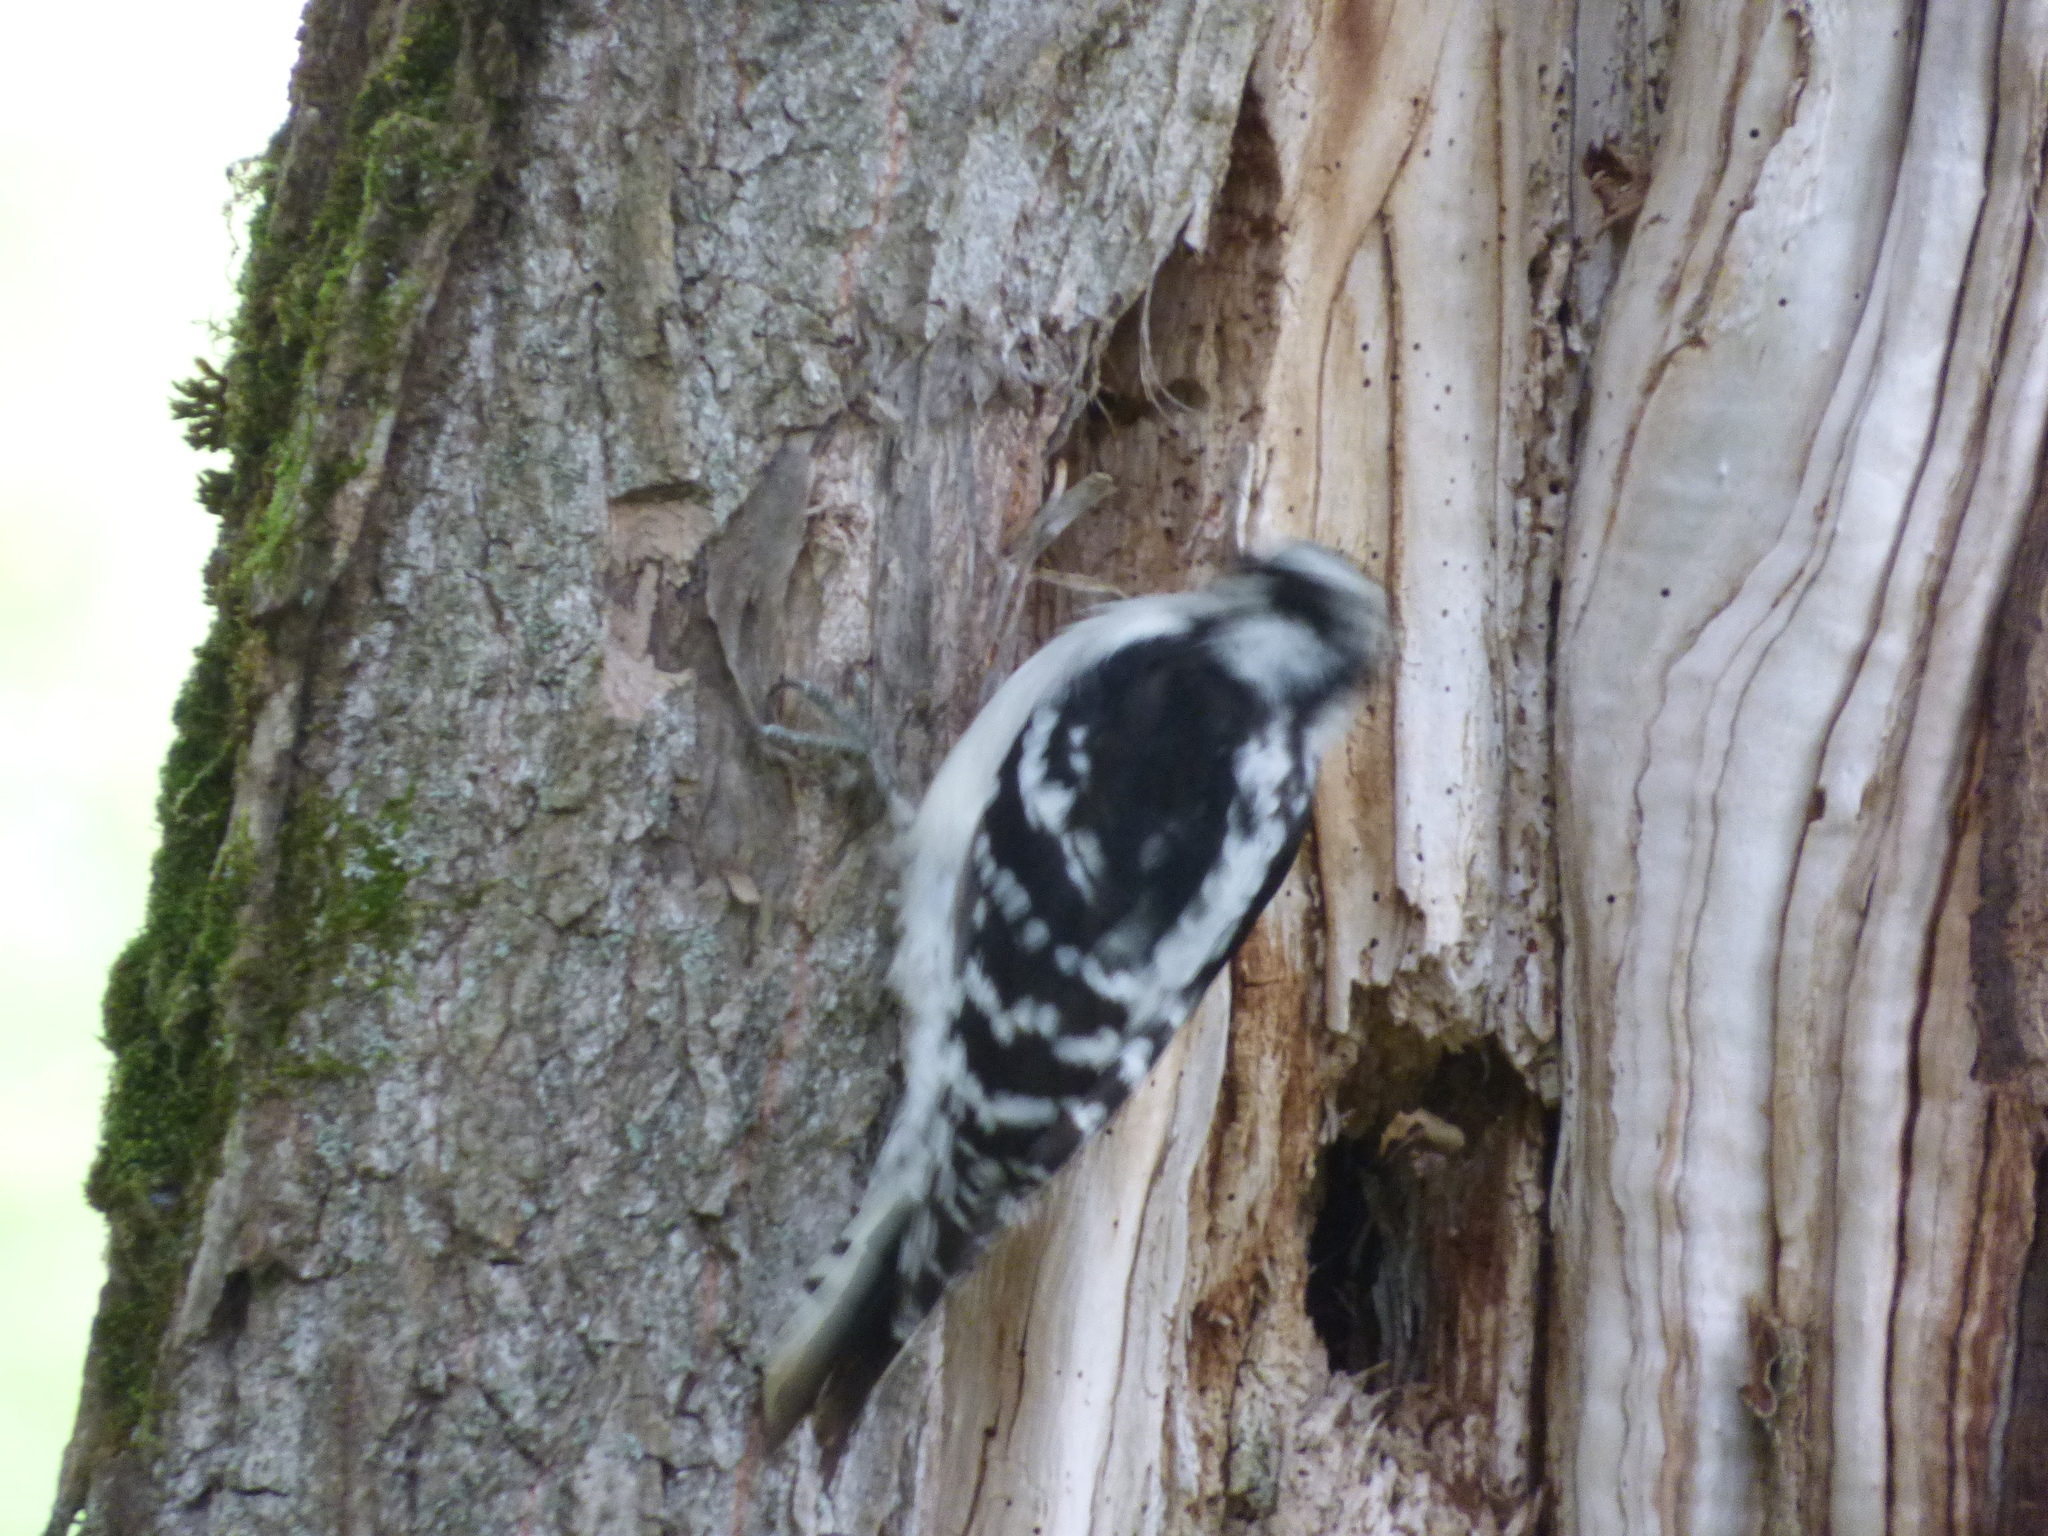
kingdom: Animalia
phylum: Chordata
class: Aves
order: Piciformes
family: Picidae
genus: Dryobates
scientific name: Dryobates pubescens
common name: Downy woodpecker
